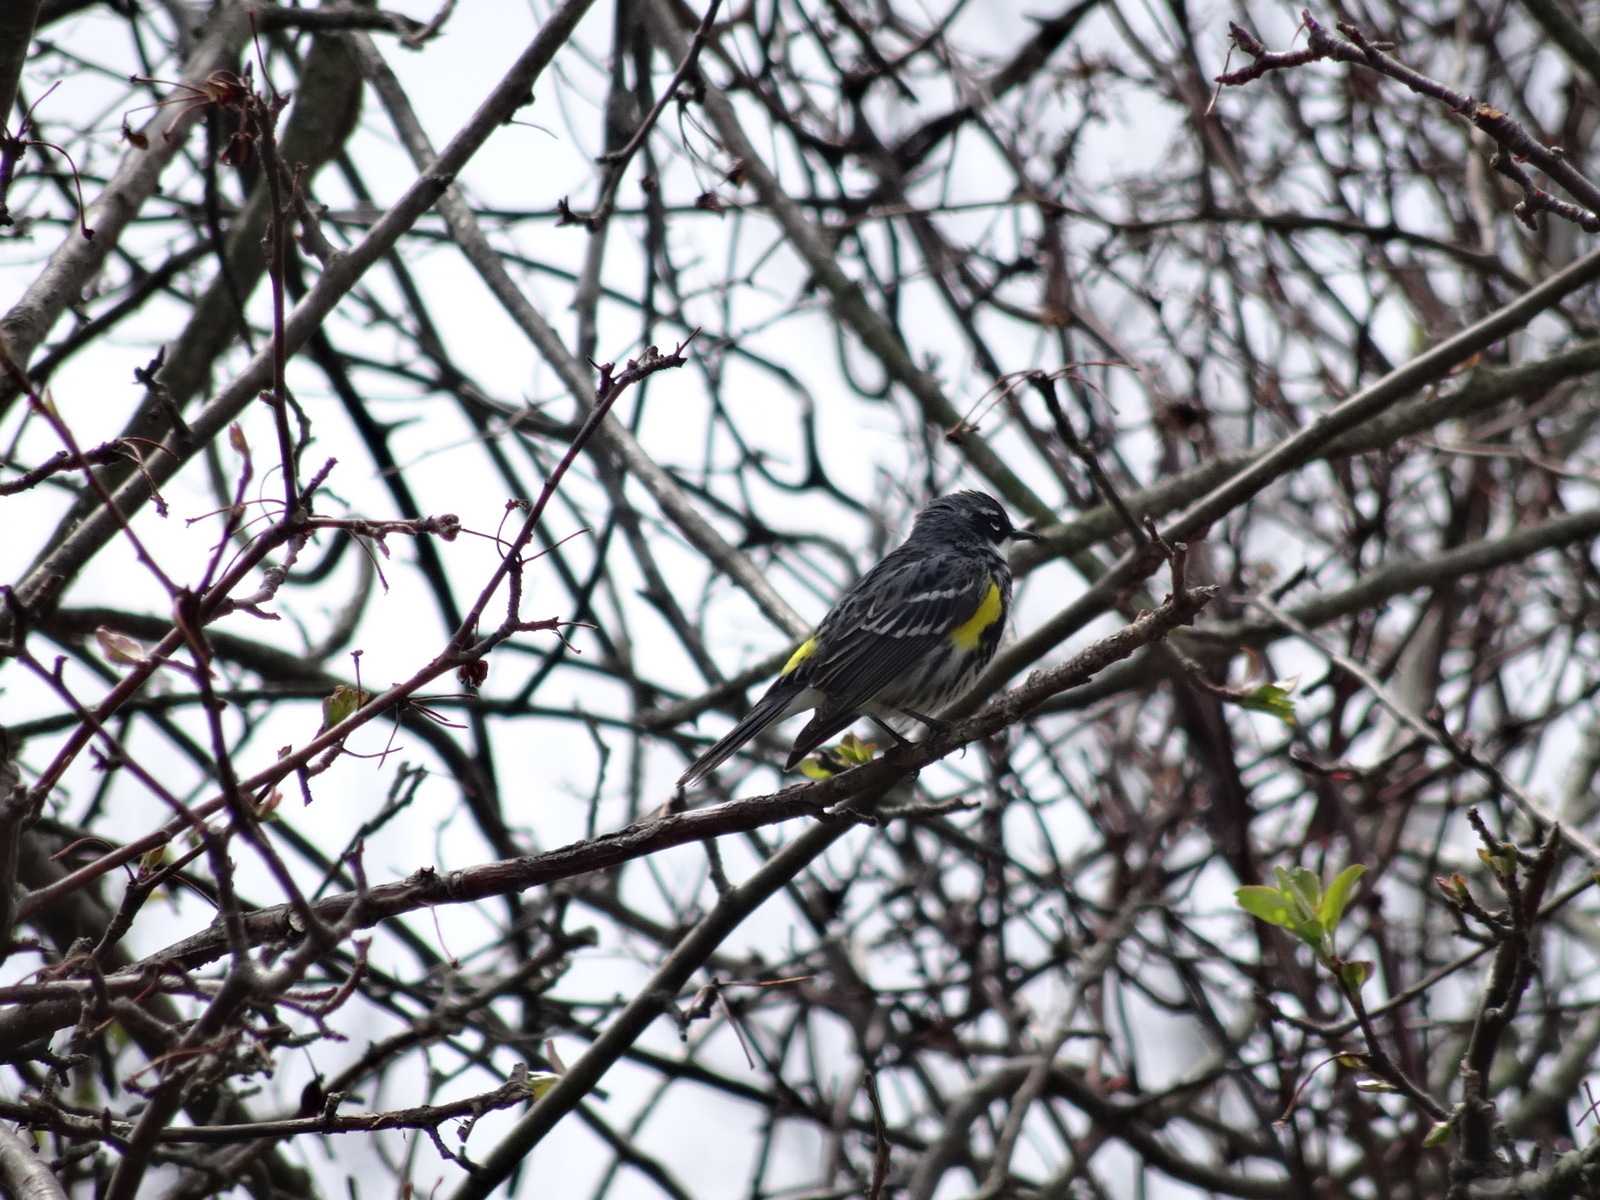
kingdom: Animalia
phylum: Chordata
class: Aves
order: Passeriformes
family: Parulidae
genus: Setophaga
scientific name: Setophaga coronata
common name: Myrtle warbler
